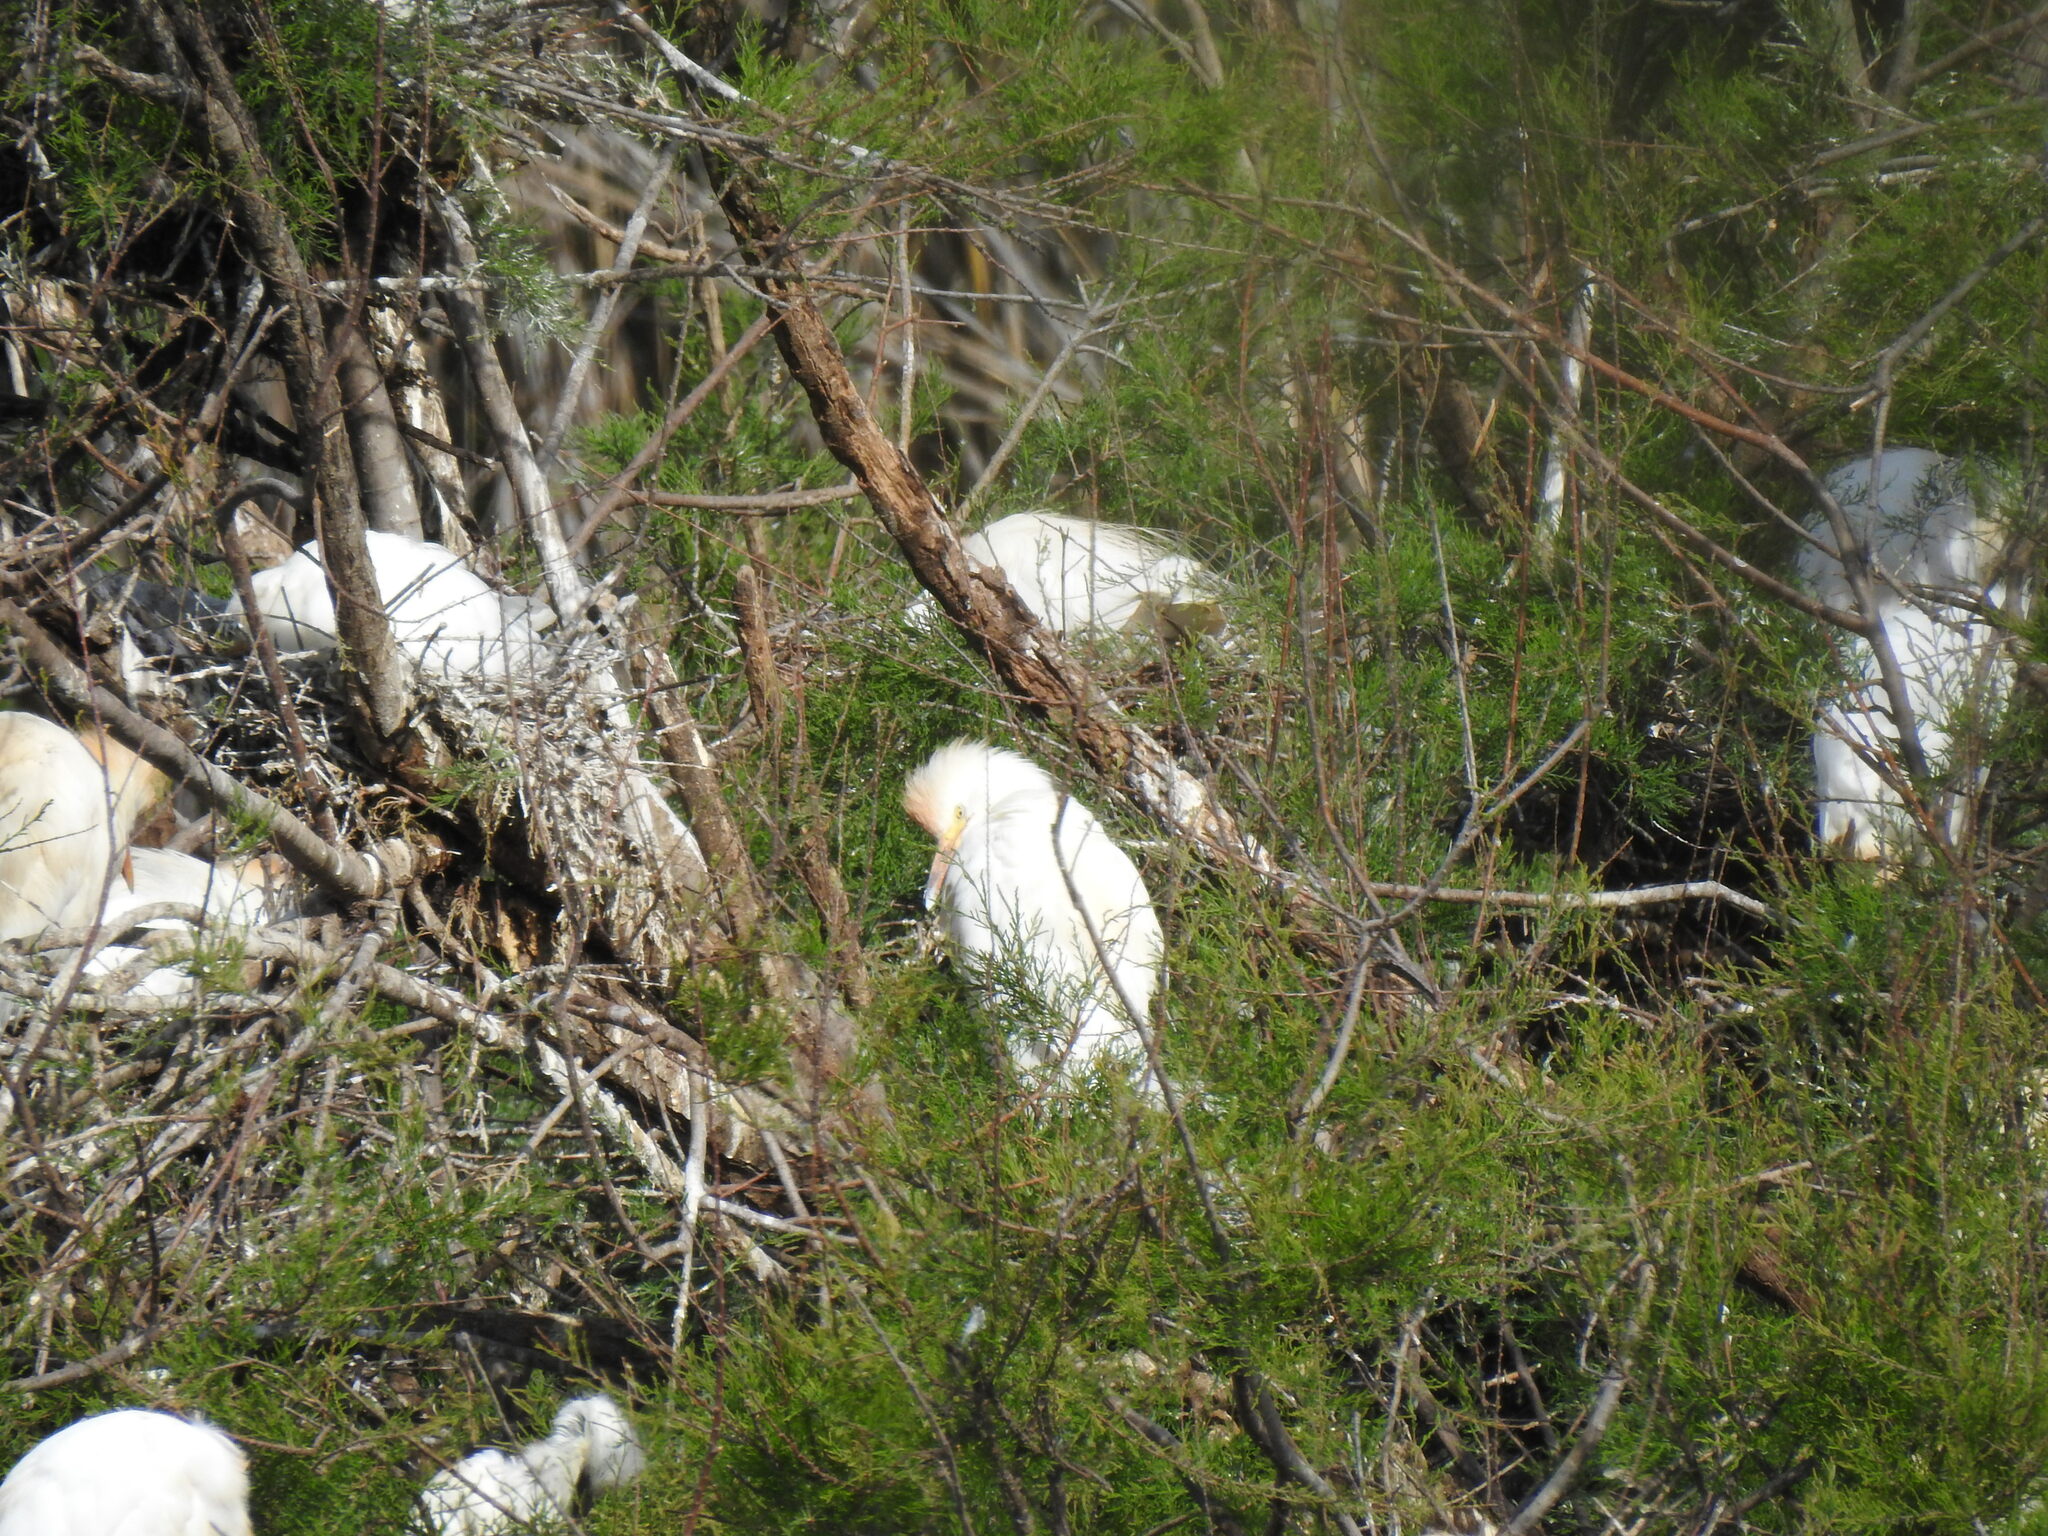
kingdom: Animalia
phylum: Chordata
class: Aves
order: Pelecaniformes
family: Ardeidae
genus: Bubulcus
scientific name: Bubulcus ibis
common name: Cattle egret
